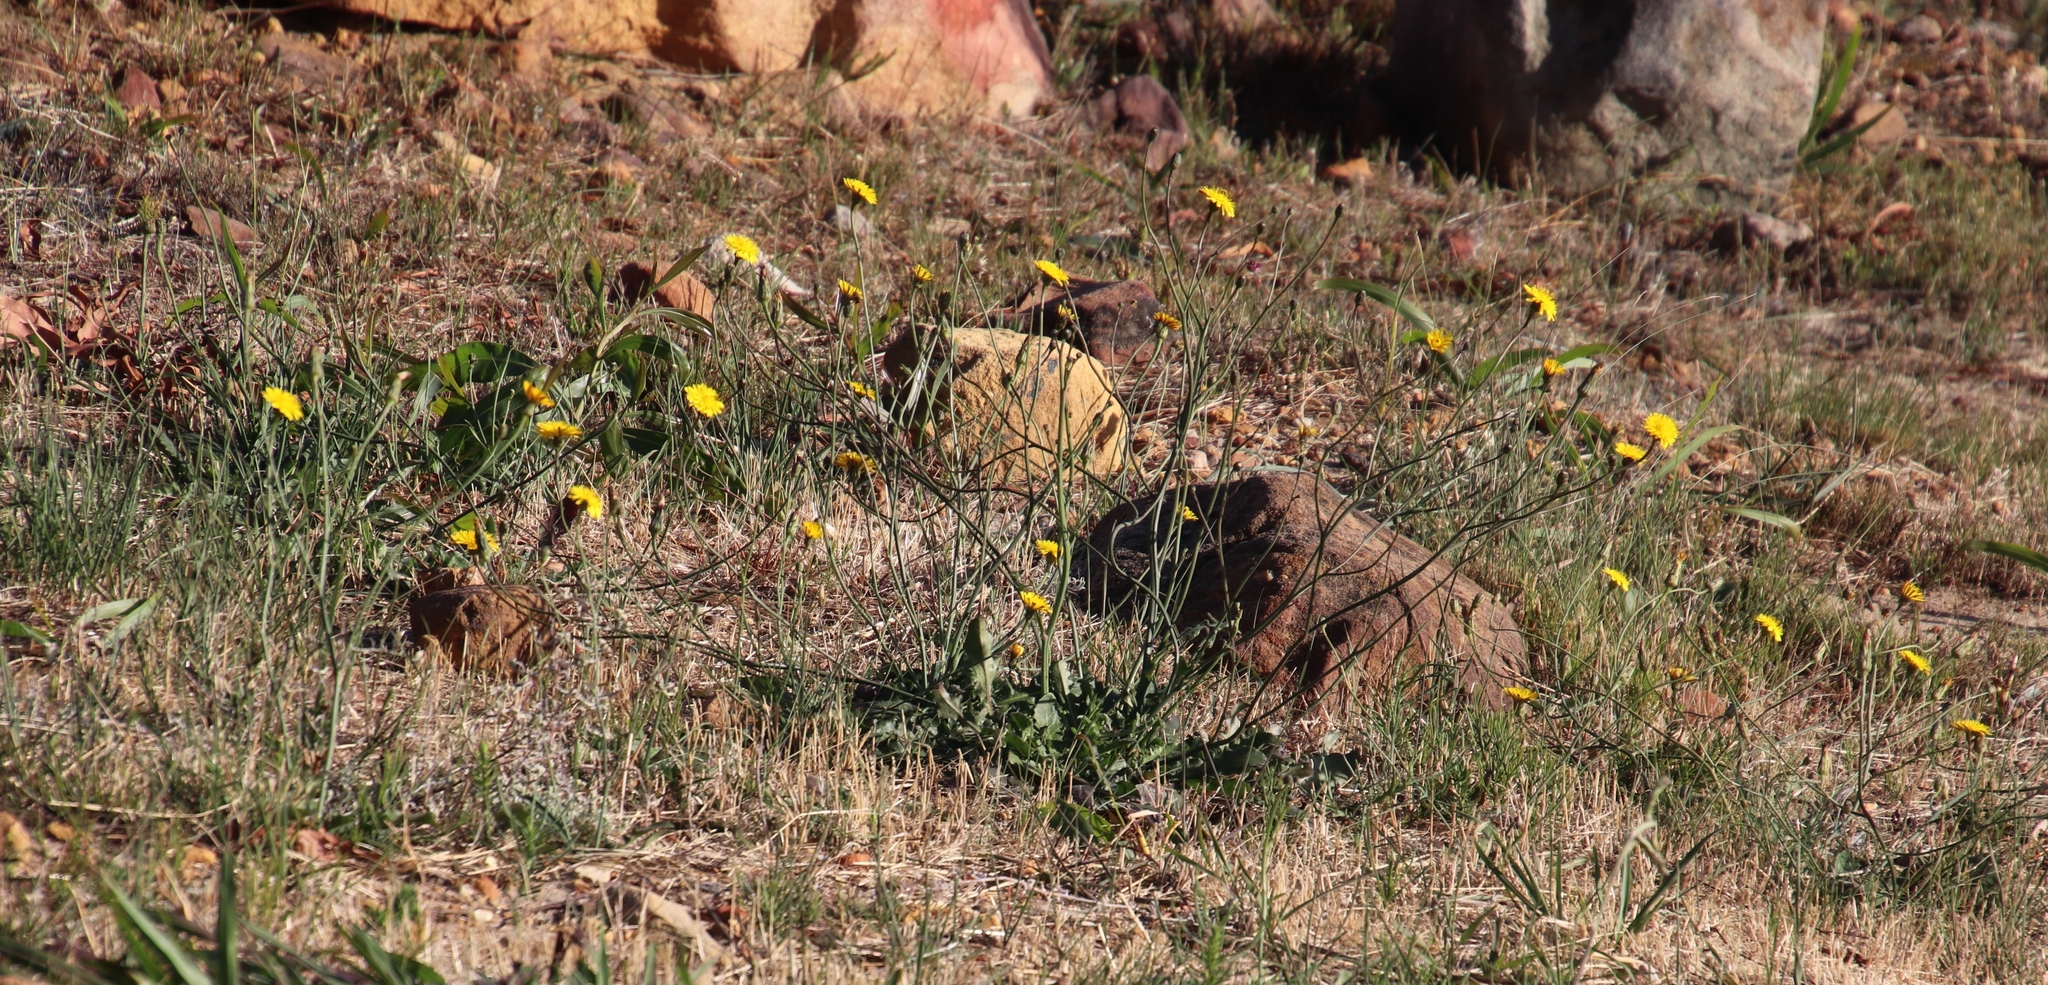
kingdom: Plantae
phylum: Tracheophyta
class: Magnoliopsida
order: Asterales
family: Asteraceae
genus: Hypochaeris
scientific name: Hypochaeris radicata
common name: Flatweed
